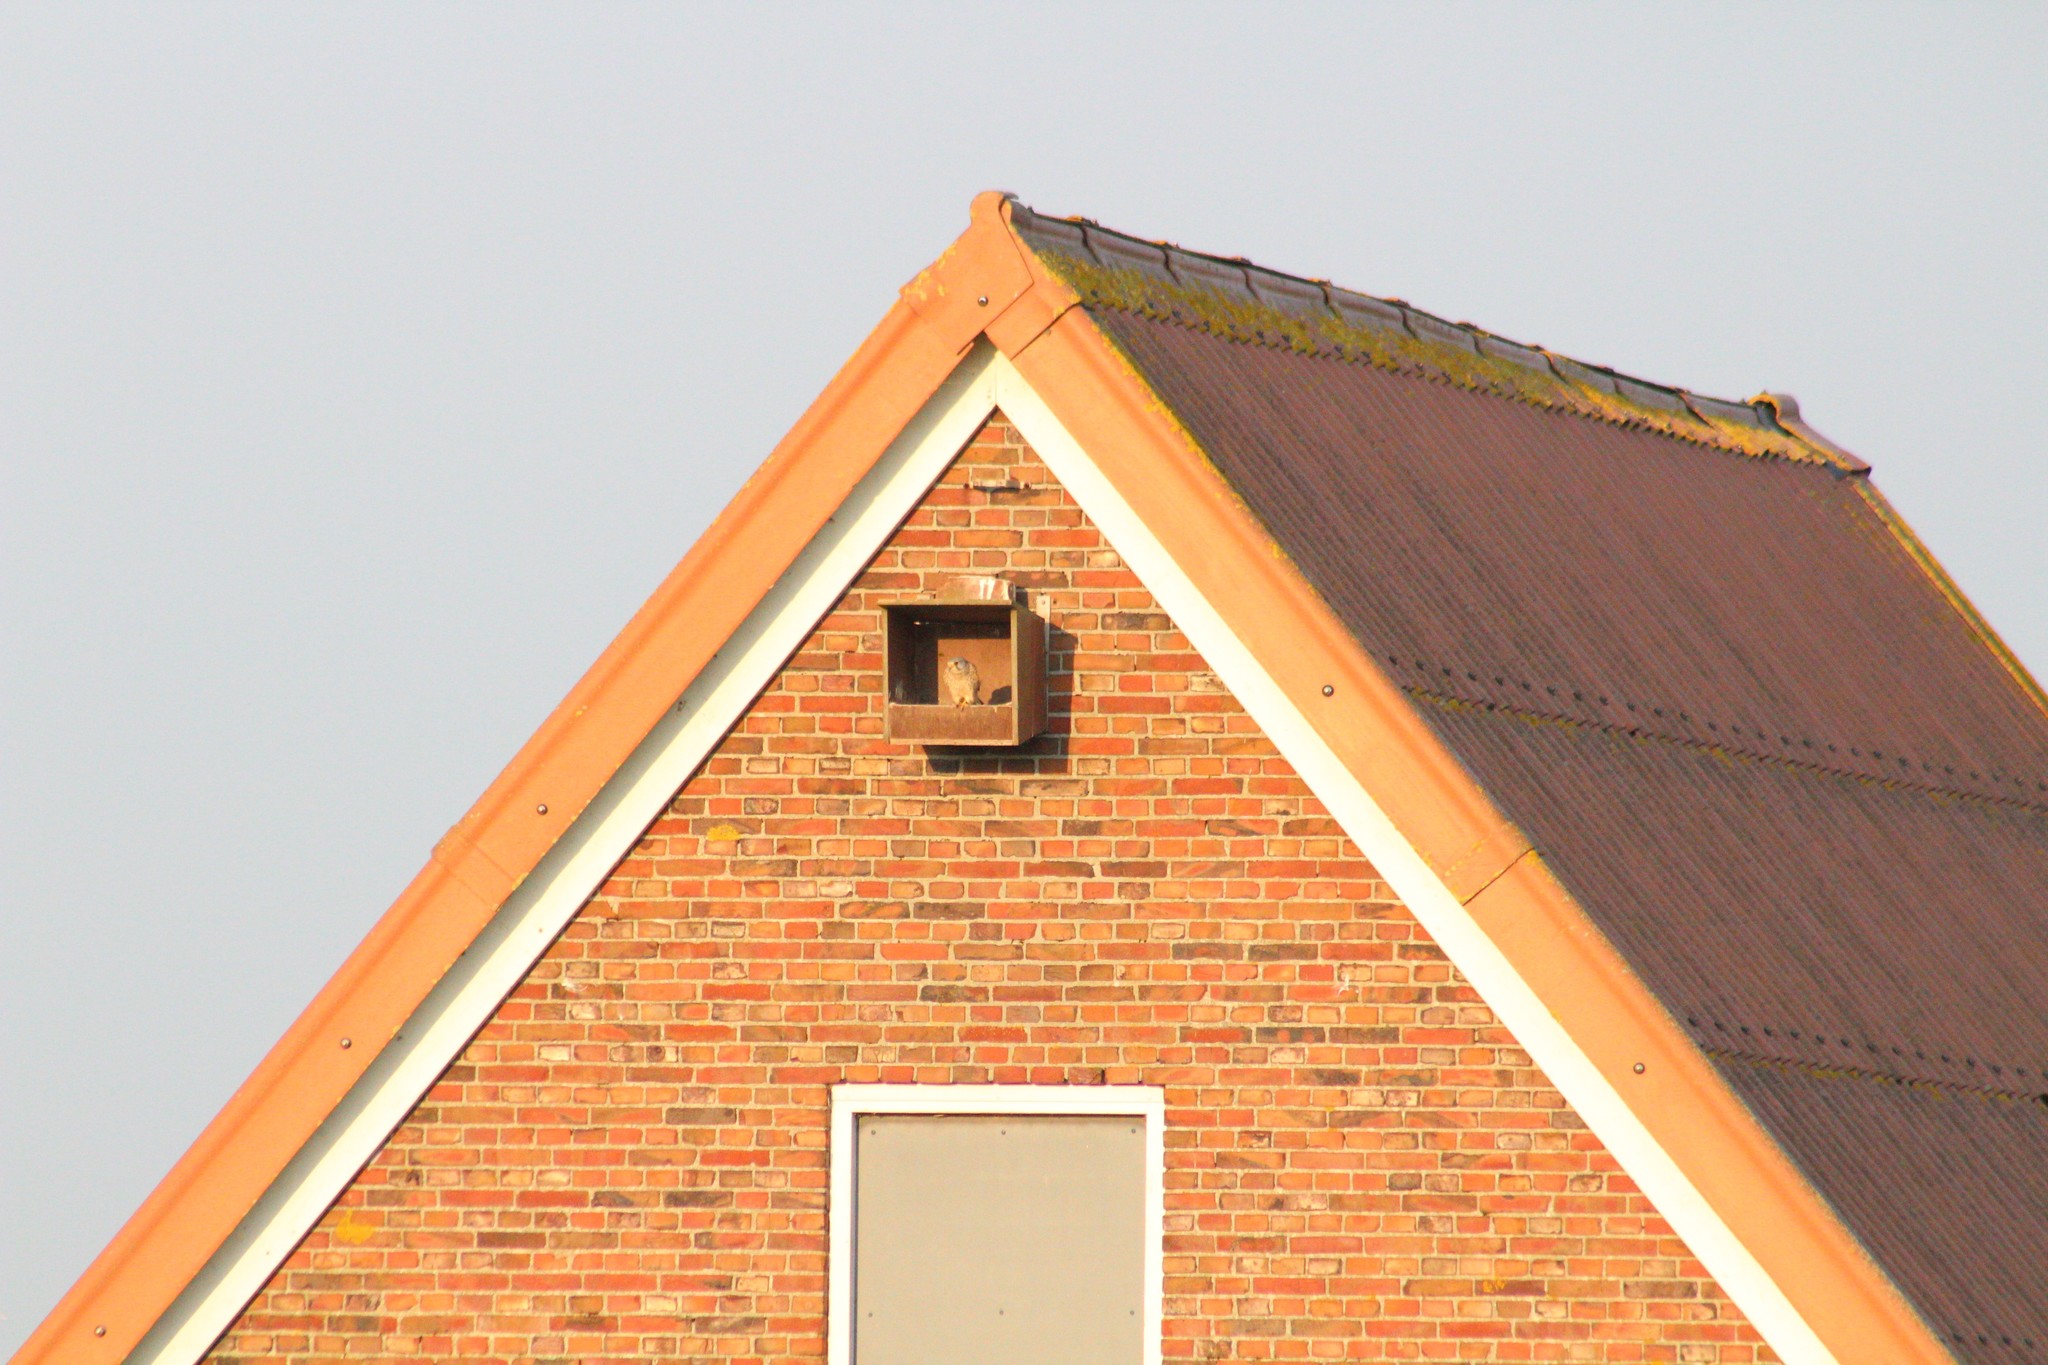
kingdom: Animalia
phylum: Chordata
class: Aves
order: Falconiformes
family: Falconidae
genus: Falco
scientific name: Falco tinnunculus
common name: Common kestrel
